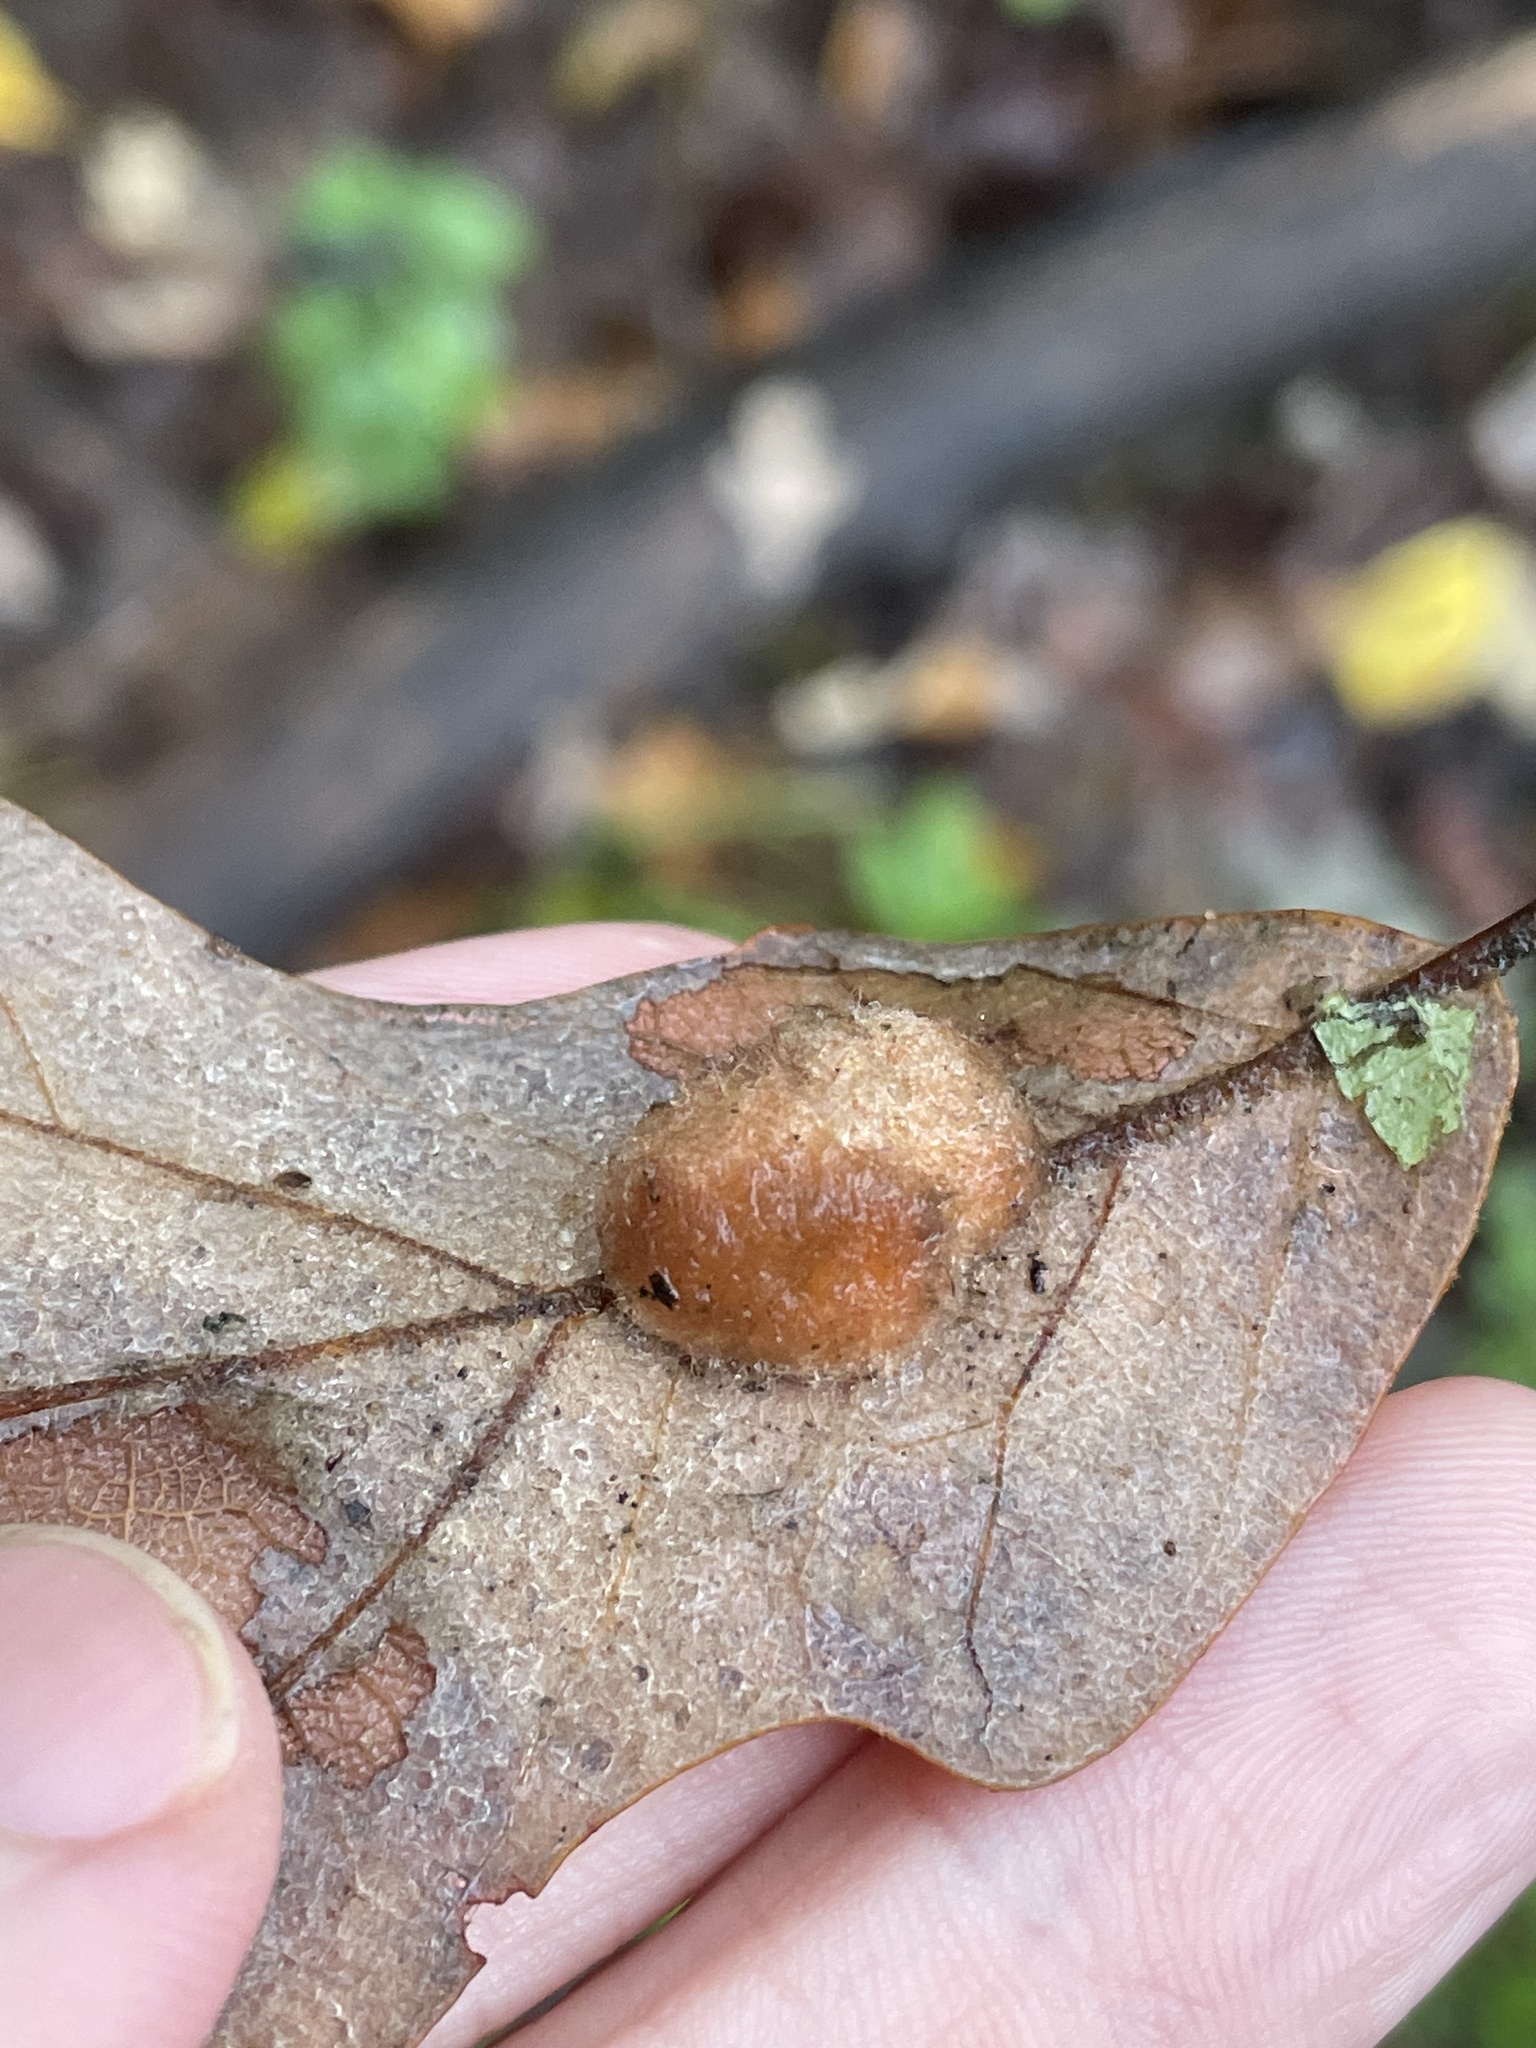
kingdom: Animalia
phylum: Arthropoda
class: Insecta
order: Hymenoptera
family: Cynipidae
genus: Andricus
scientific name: Andricus Druon pattoni
